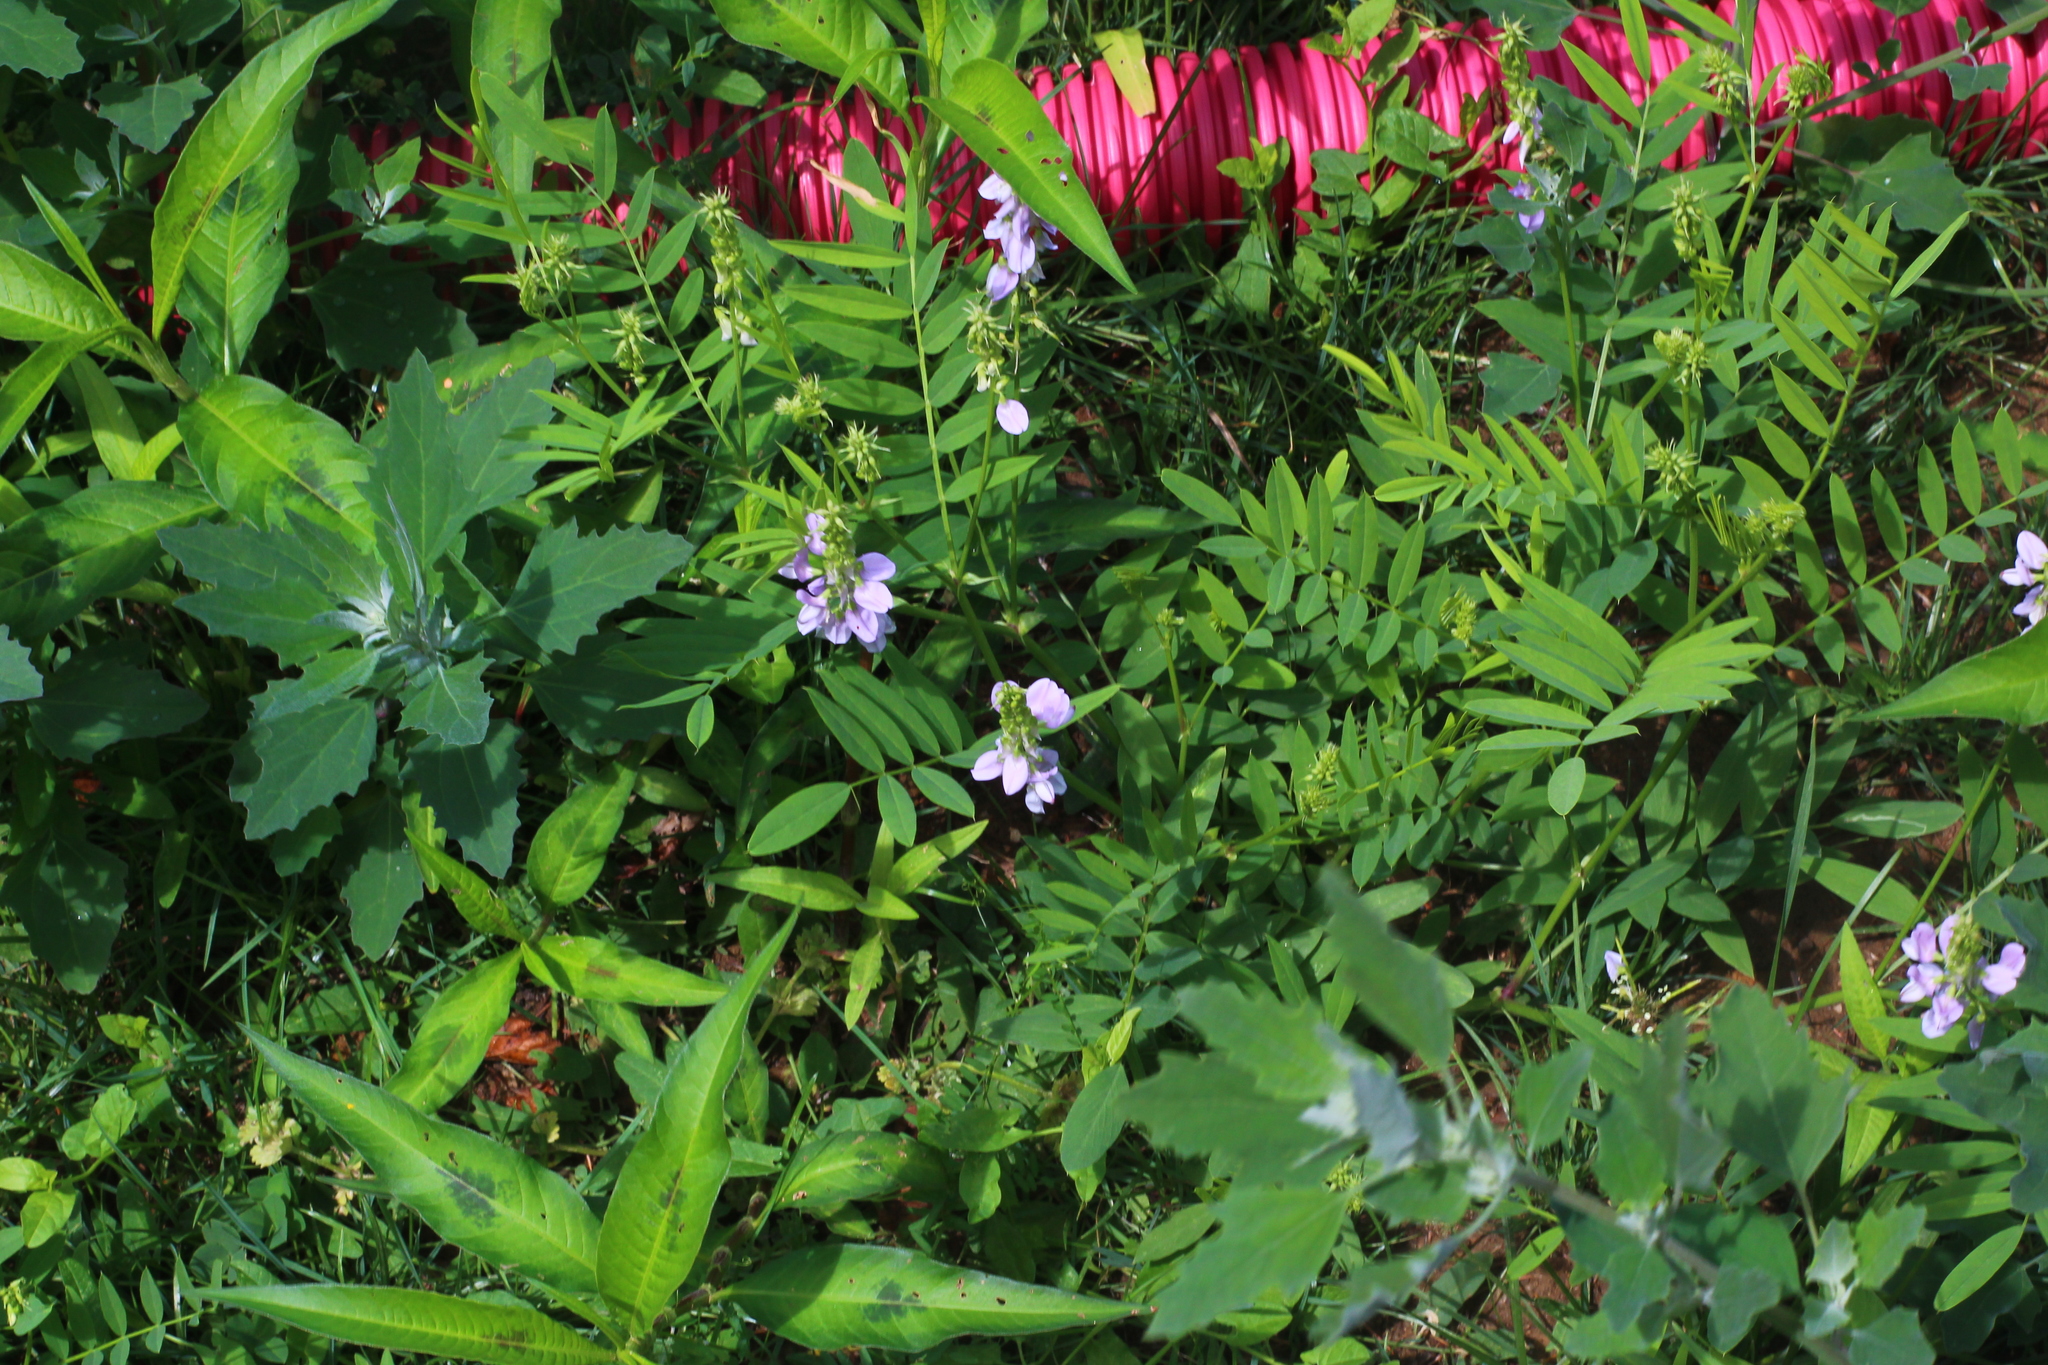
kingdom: Plantae
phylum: Tracheophyta
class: Magnoliopsida
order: Fabales
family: Fabaceae
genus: Galega
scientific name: Galega officinalis
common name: Goat's-rue
